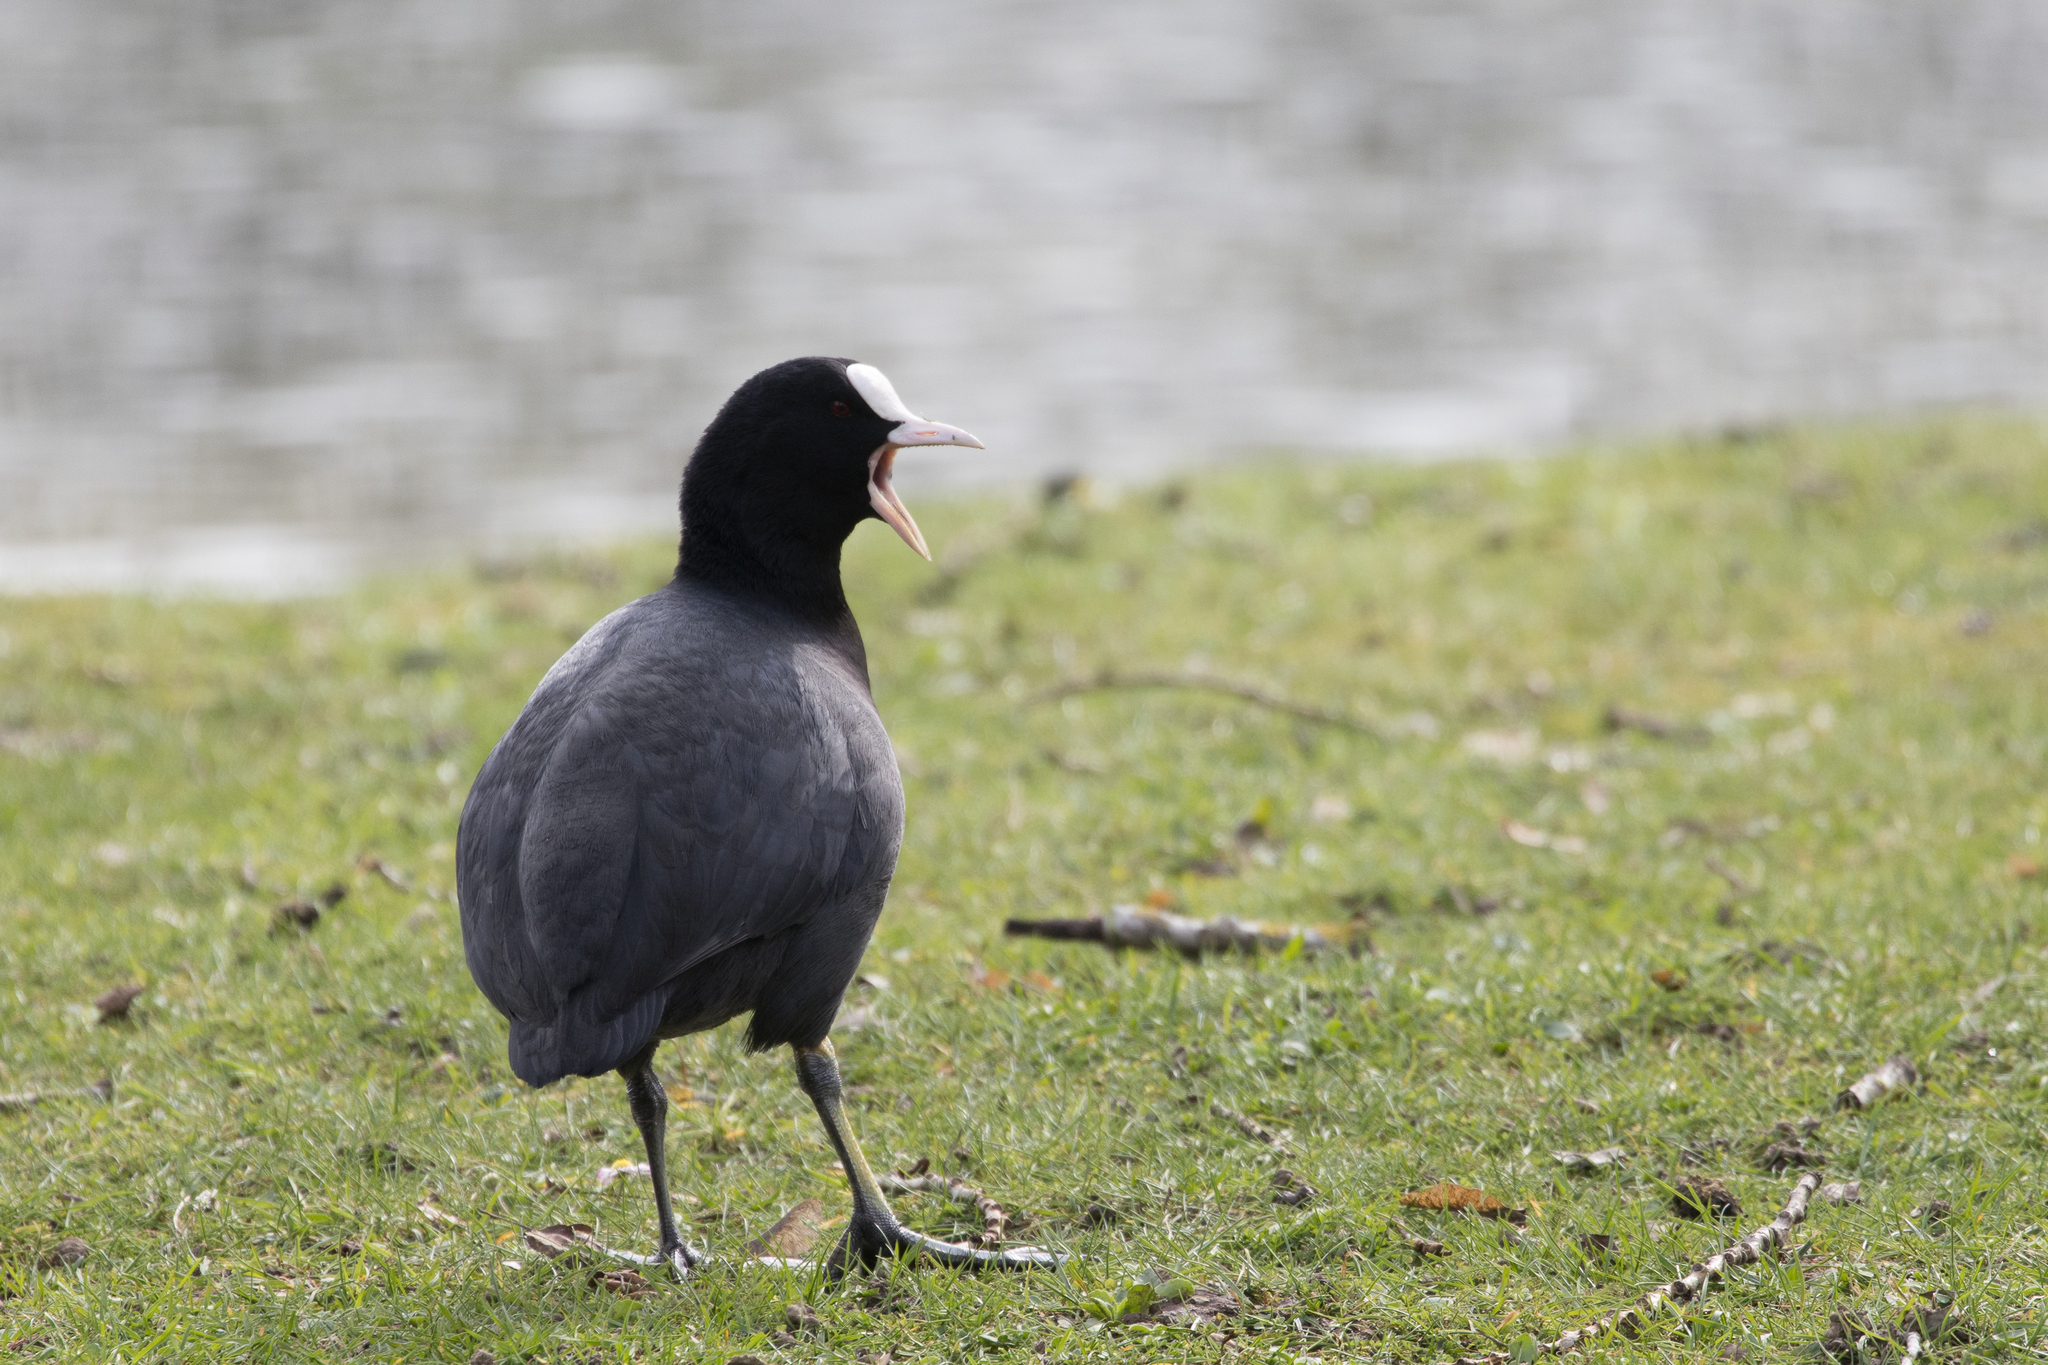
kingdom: Animalia
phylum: Chordata
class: Aves
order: Gruiformes
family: Rallidae
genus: Fulica
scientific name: Fulica atra
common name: Eurasian coot
